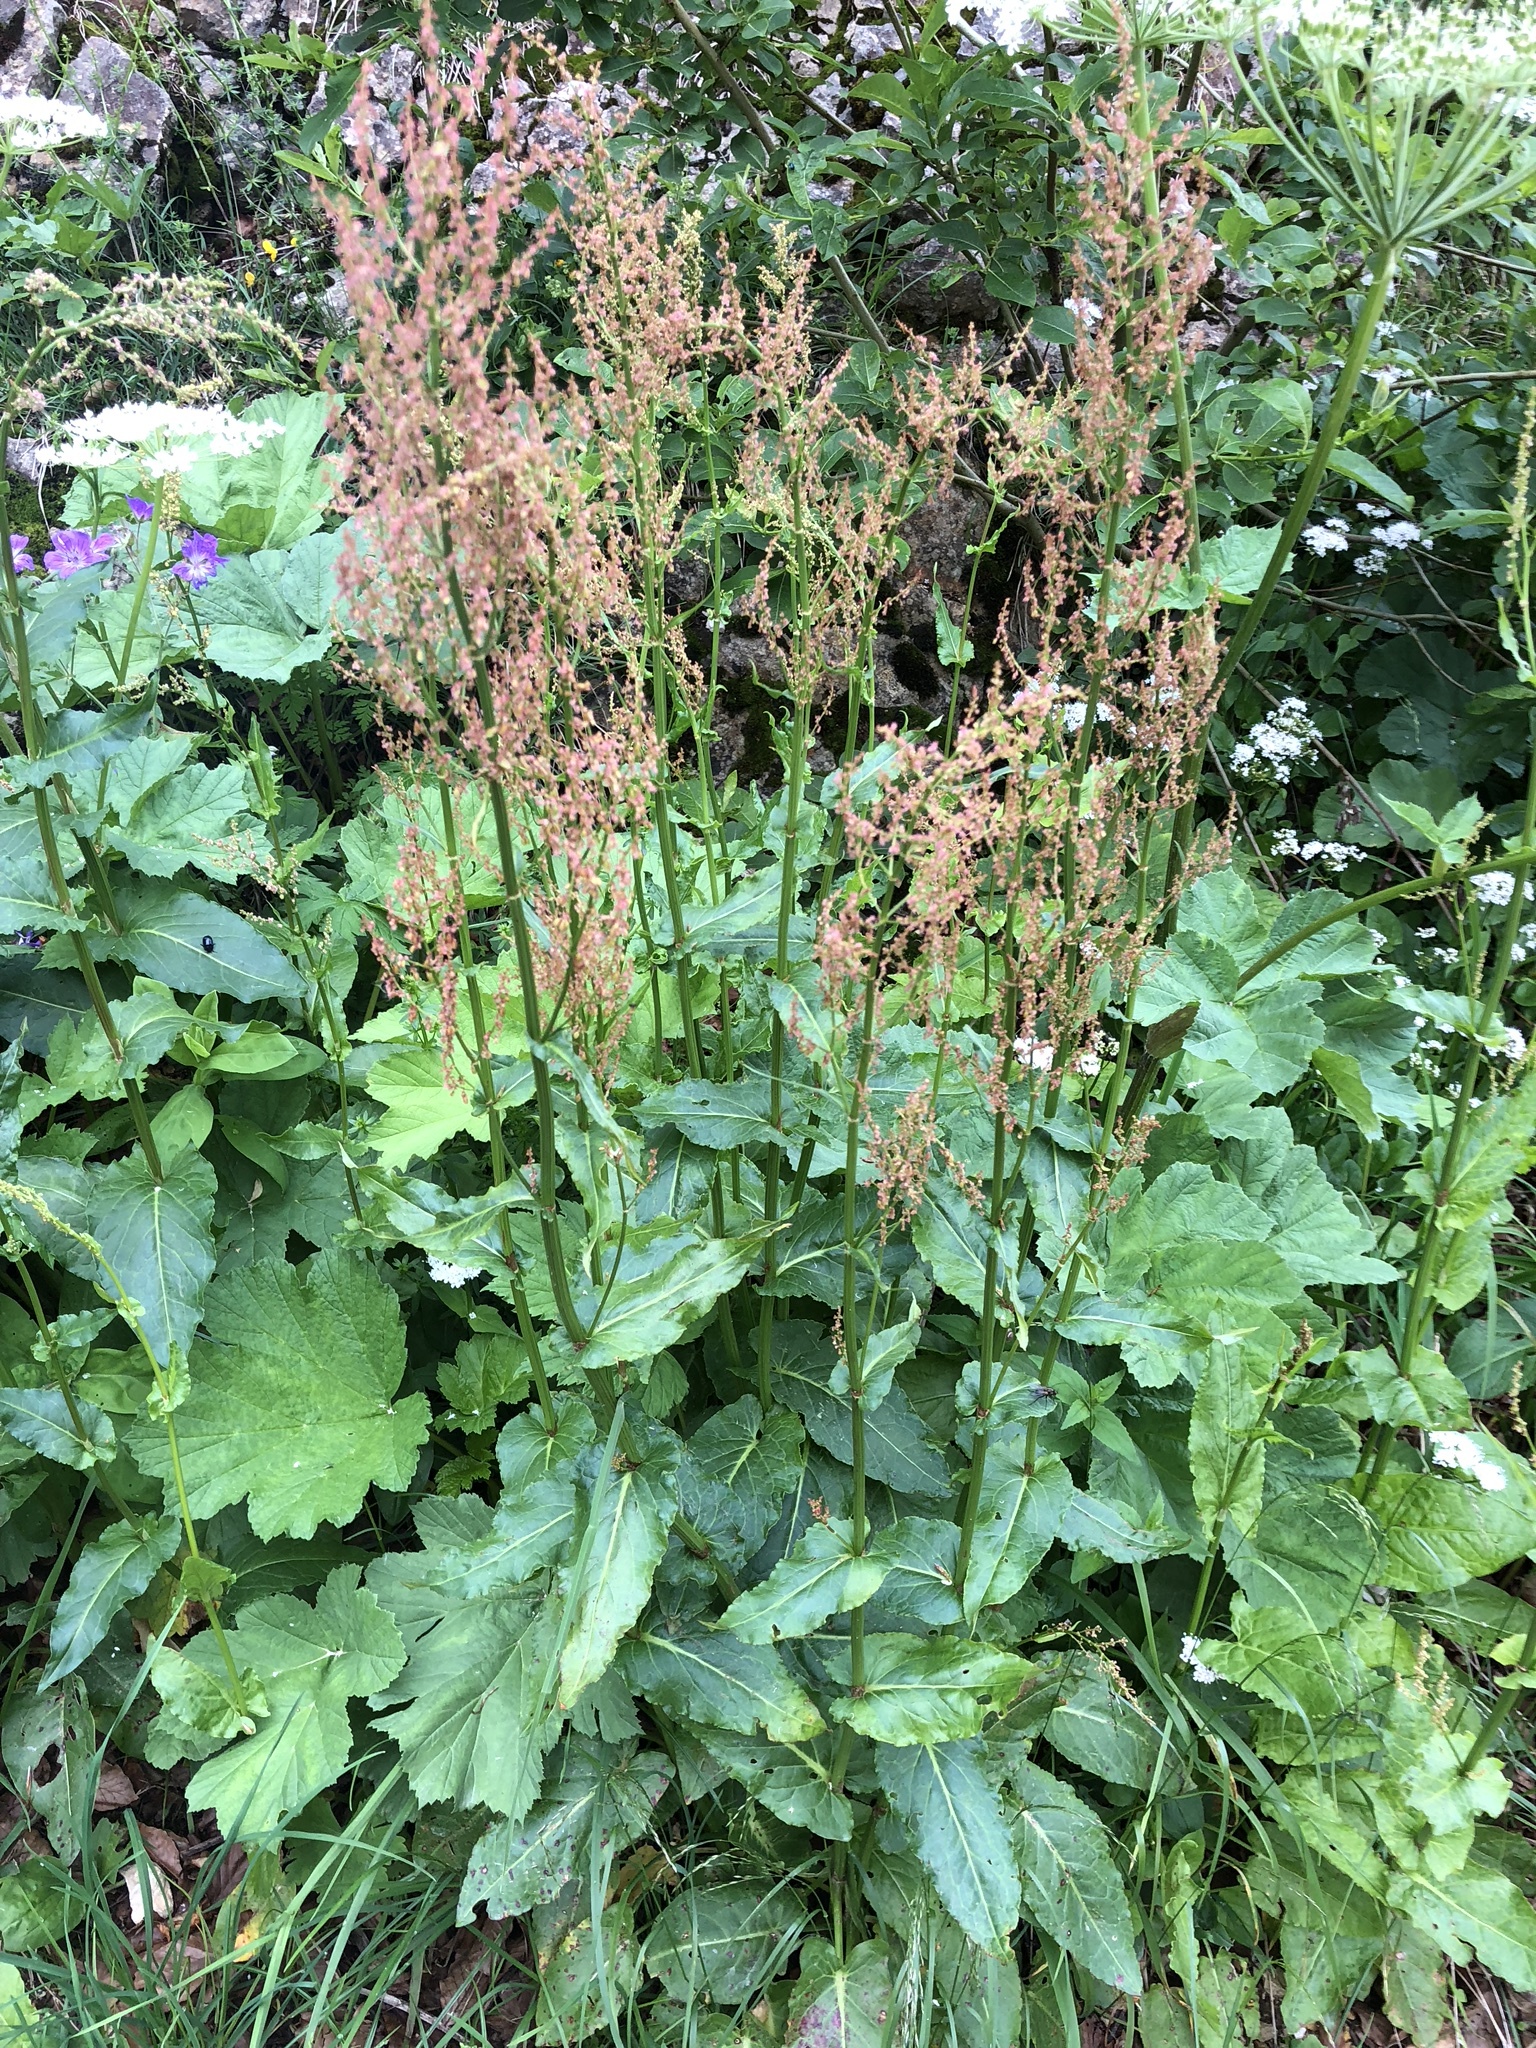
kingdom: Plantae
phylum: Tracheophyta
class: Magnoliopsida
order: Caryophyllales
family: Polygonaceae
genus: Rumex
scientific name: Rumex acetosa
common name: Garden sorrel
